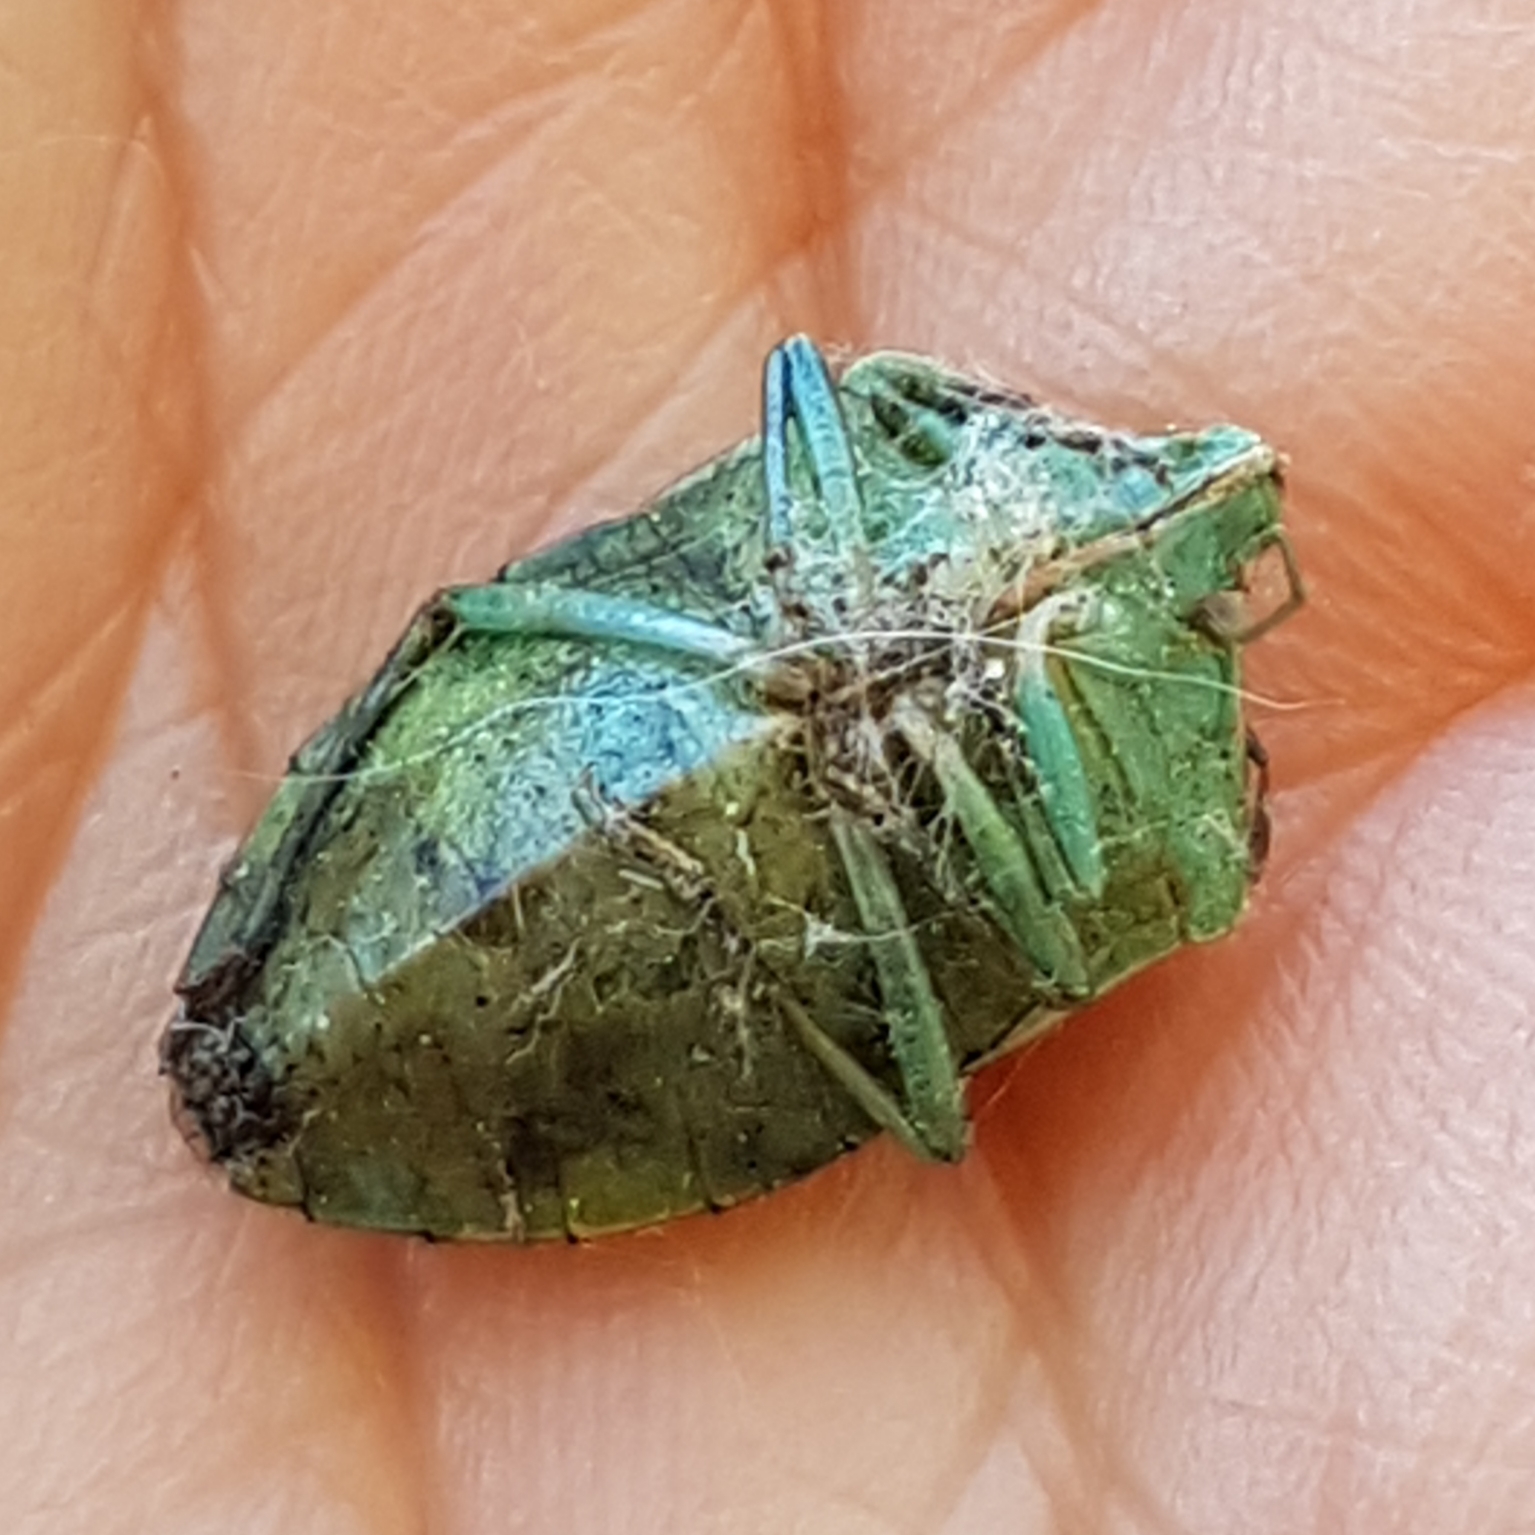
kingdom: Animalia
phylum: Arthropoda
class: Insecta
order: Hemiptera
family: Pentatomidae
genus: Nezara
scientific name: Nezara viridula
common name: Southern green stink bug
